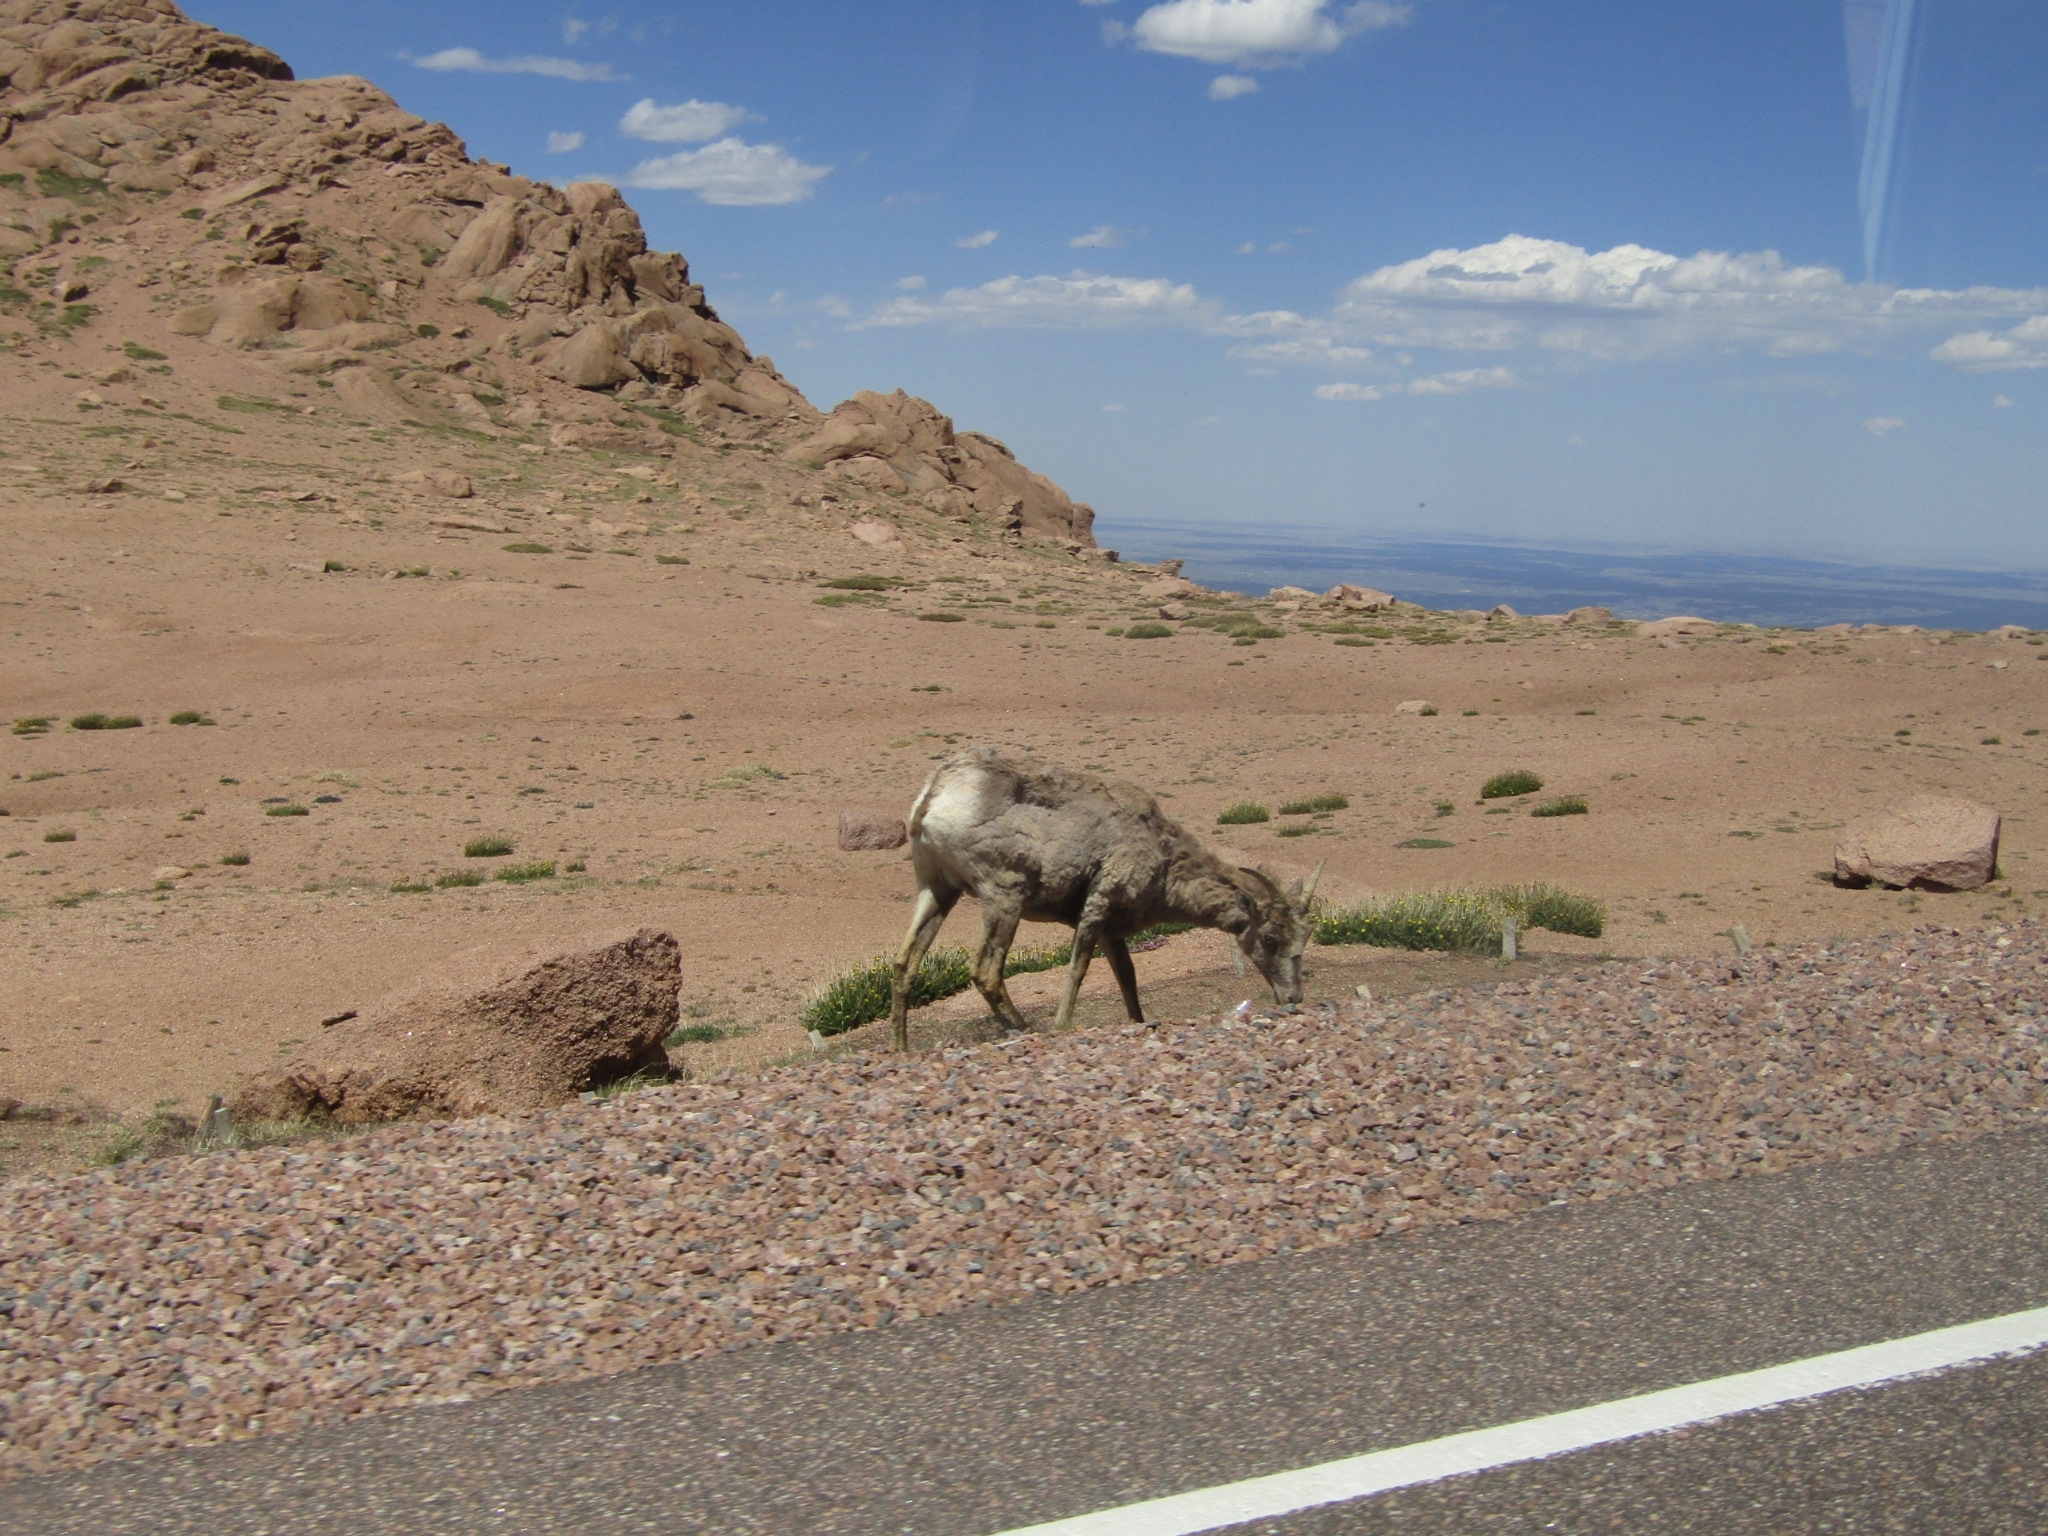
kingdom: Animalia
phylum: Chordata
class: Mammalia
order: Artiodactyla
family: Bovidae
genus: Ovis
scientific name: Ovis canadensis
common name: Bighorn sheep
